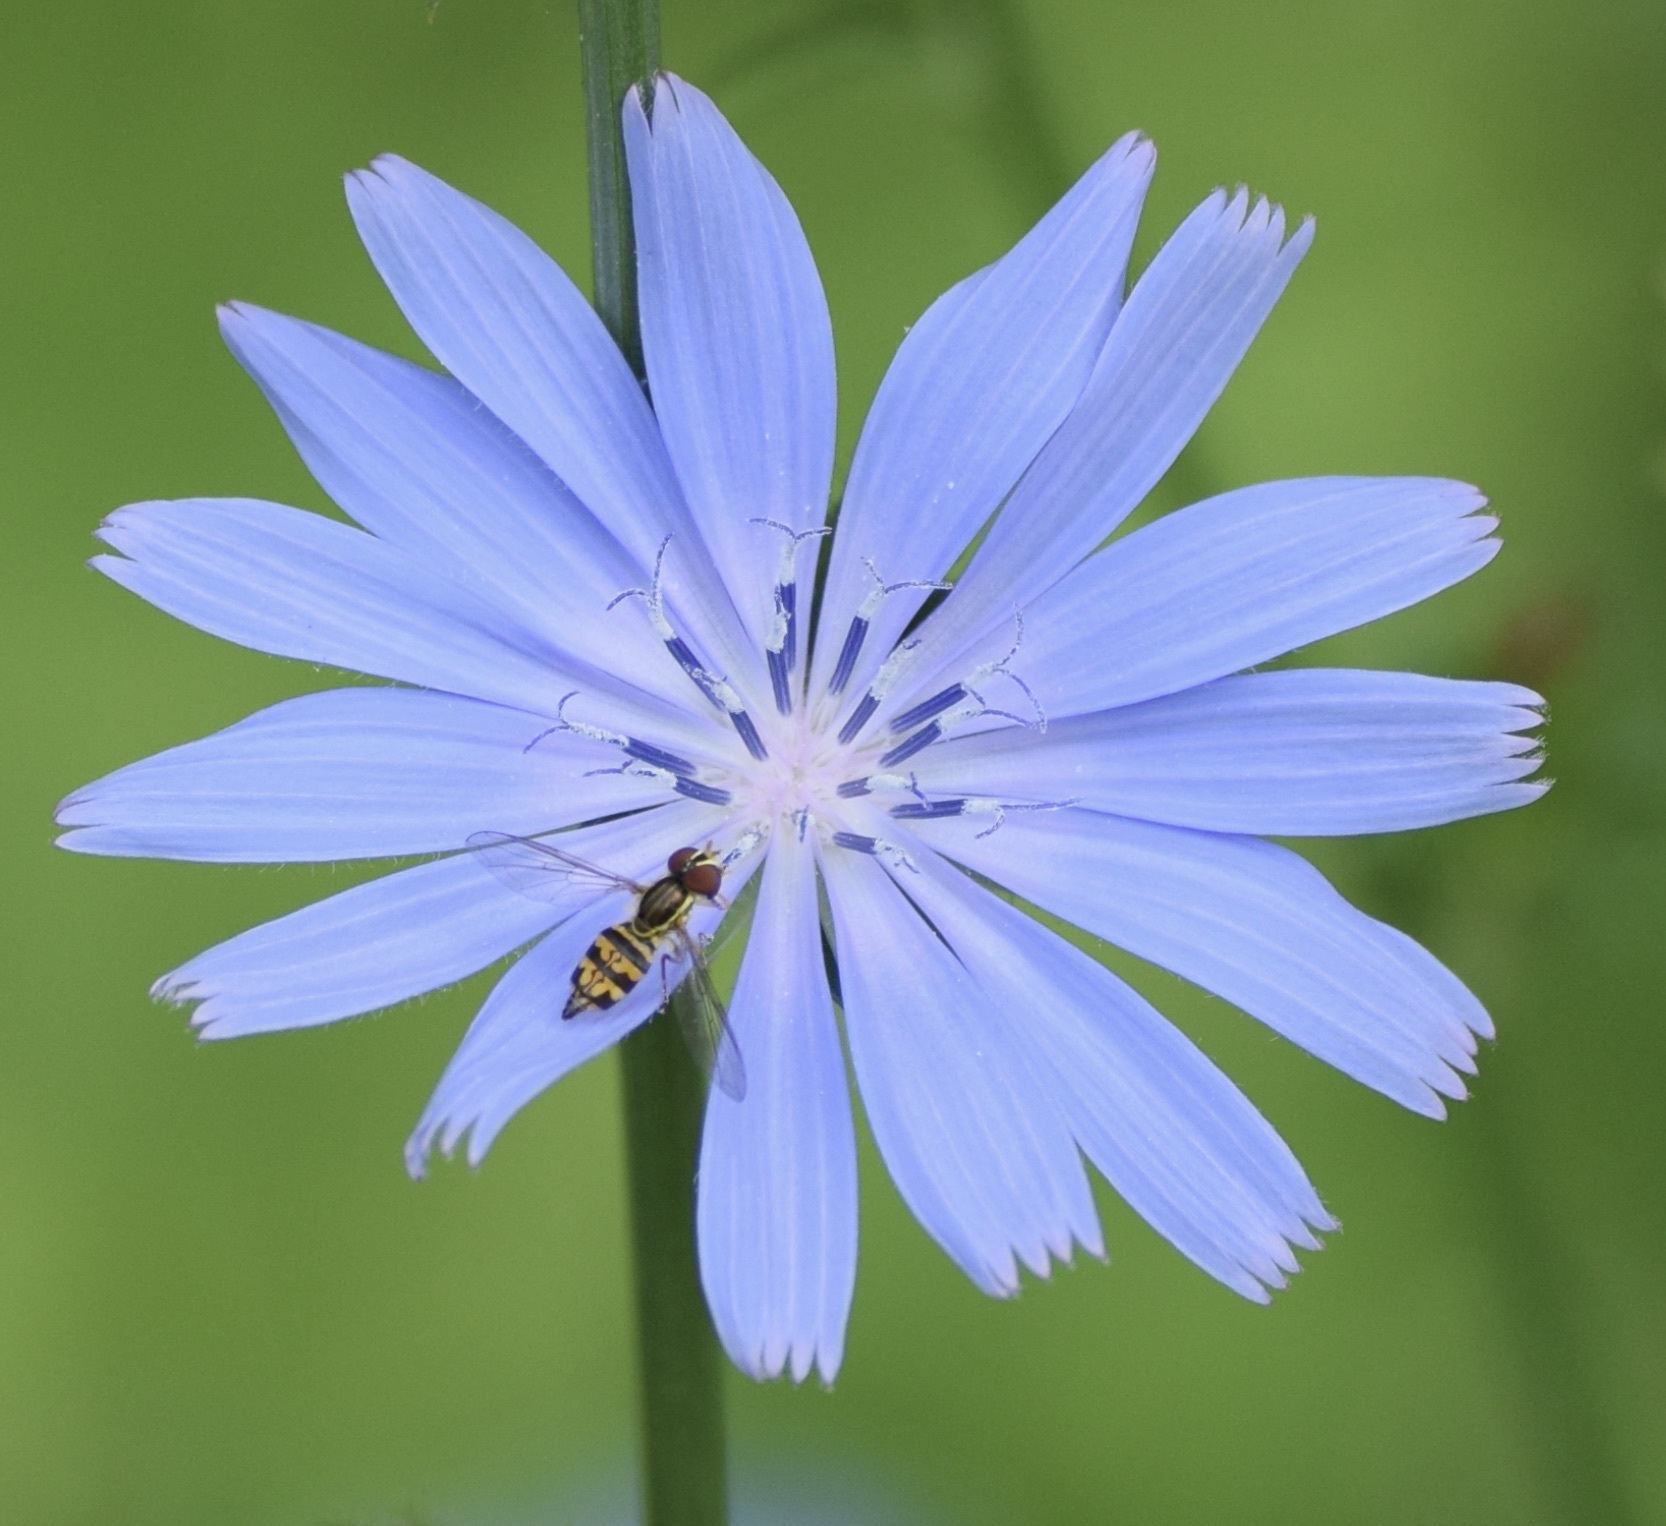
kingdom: Animalia
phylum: Arthropoda
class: Insecta
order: Diptera
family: Syrphidae
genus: Toxomerus
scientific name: Toxomerus geminatus
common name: Eastern calligrapher
